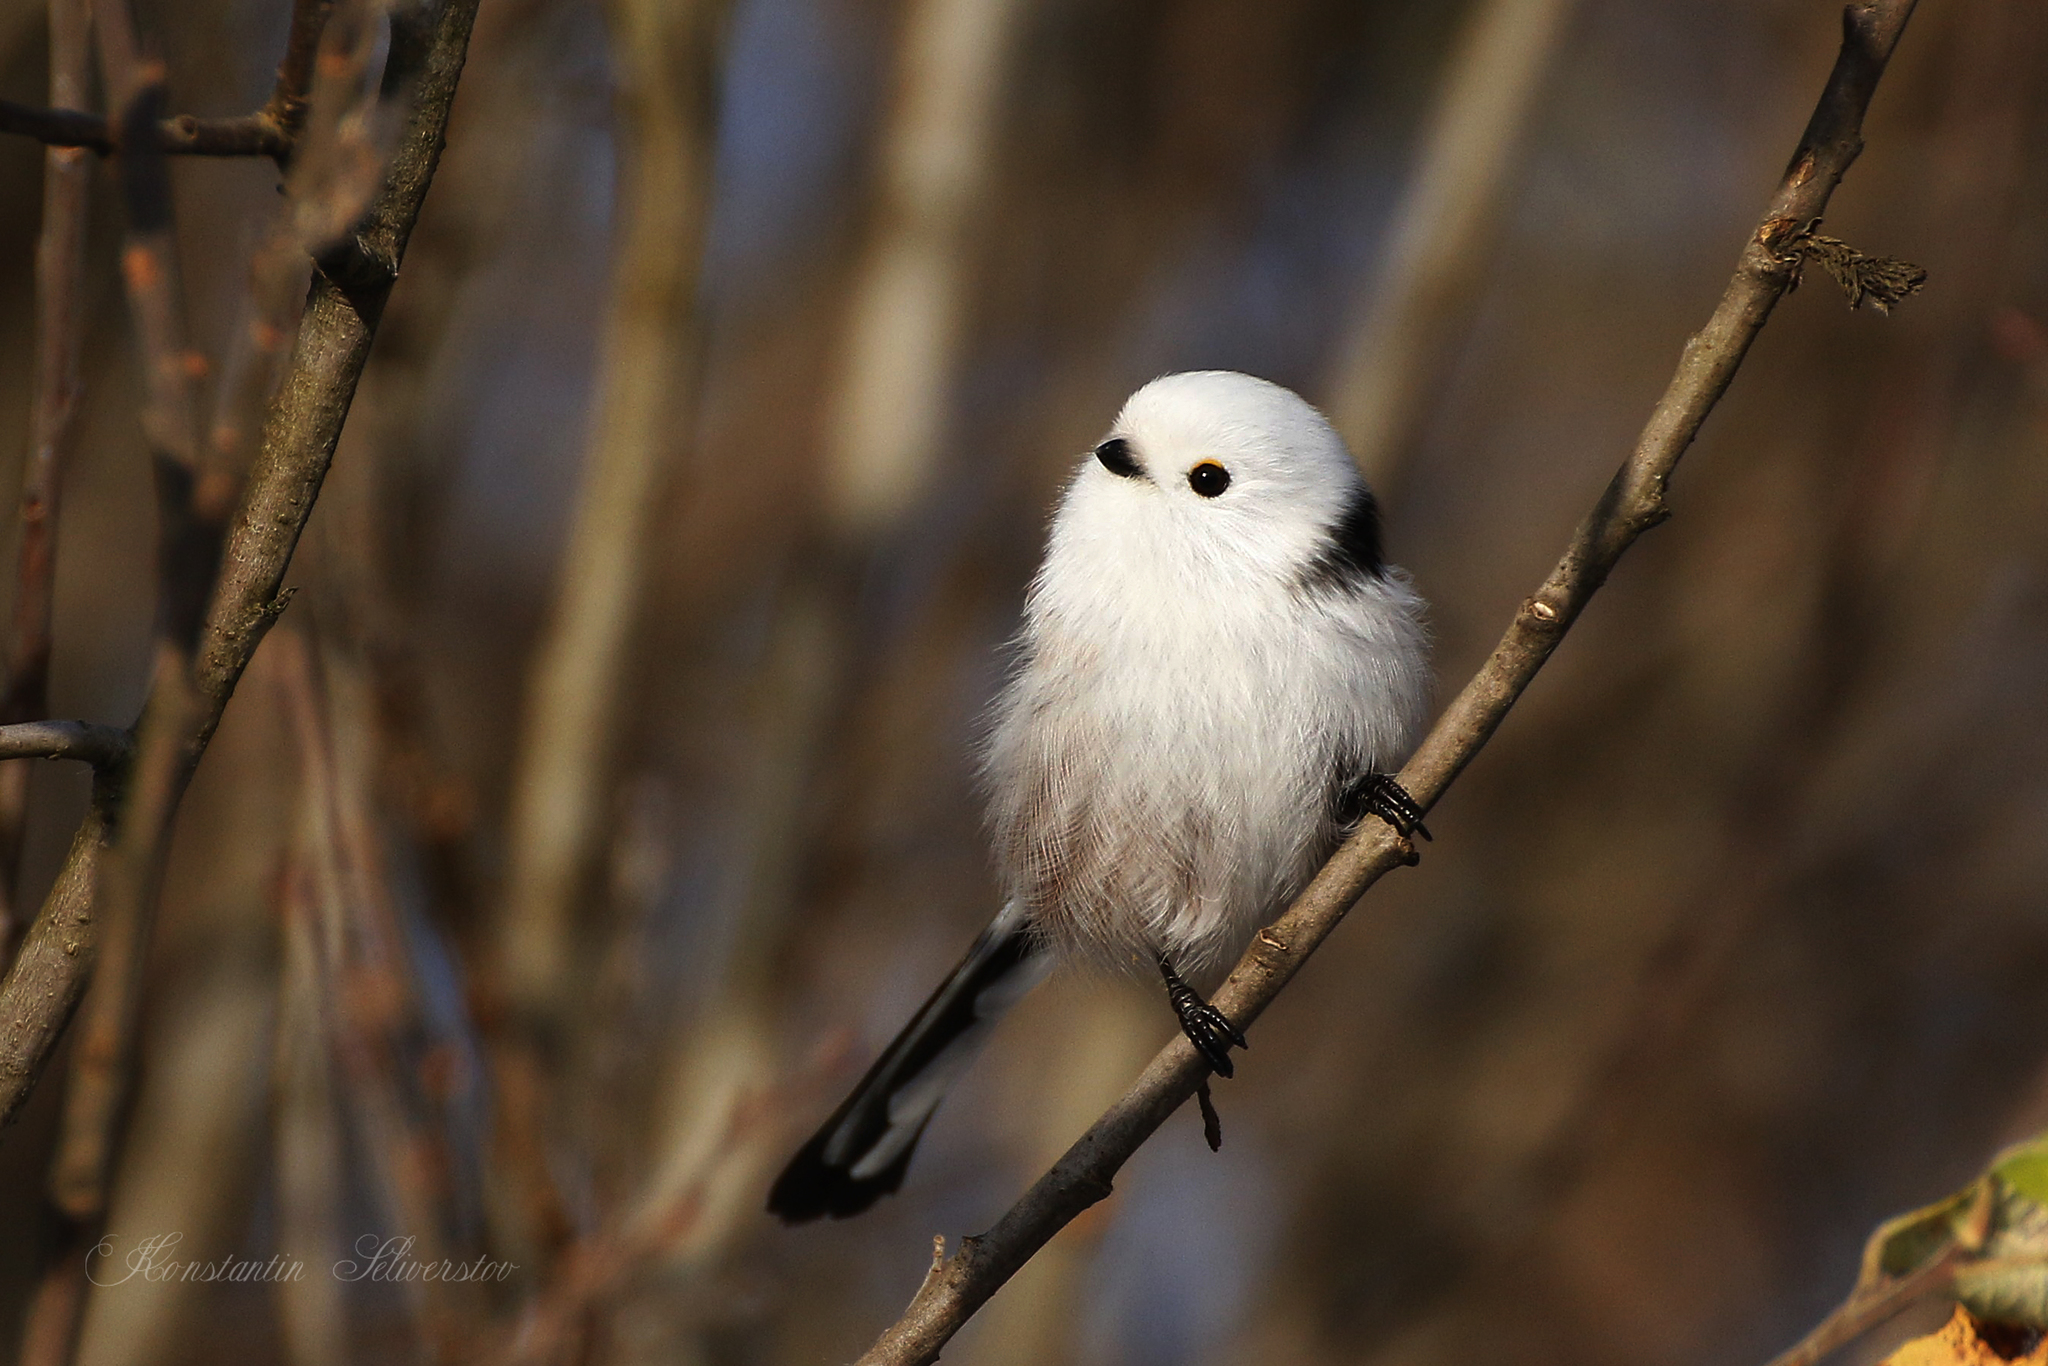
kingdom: Animalia
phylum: Chordata
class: Aves
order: Passeriformes
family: Aegithalidae
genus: Aegithalos
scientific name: Aegithalos caudatus
